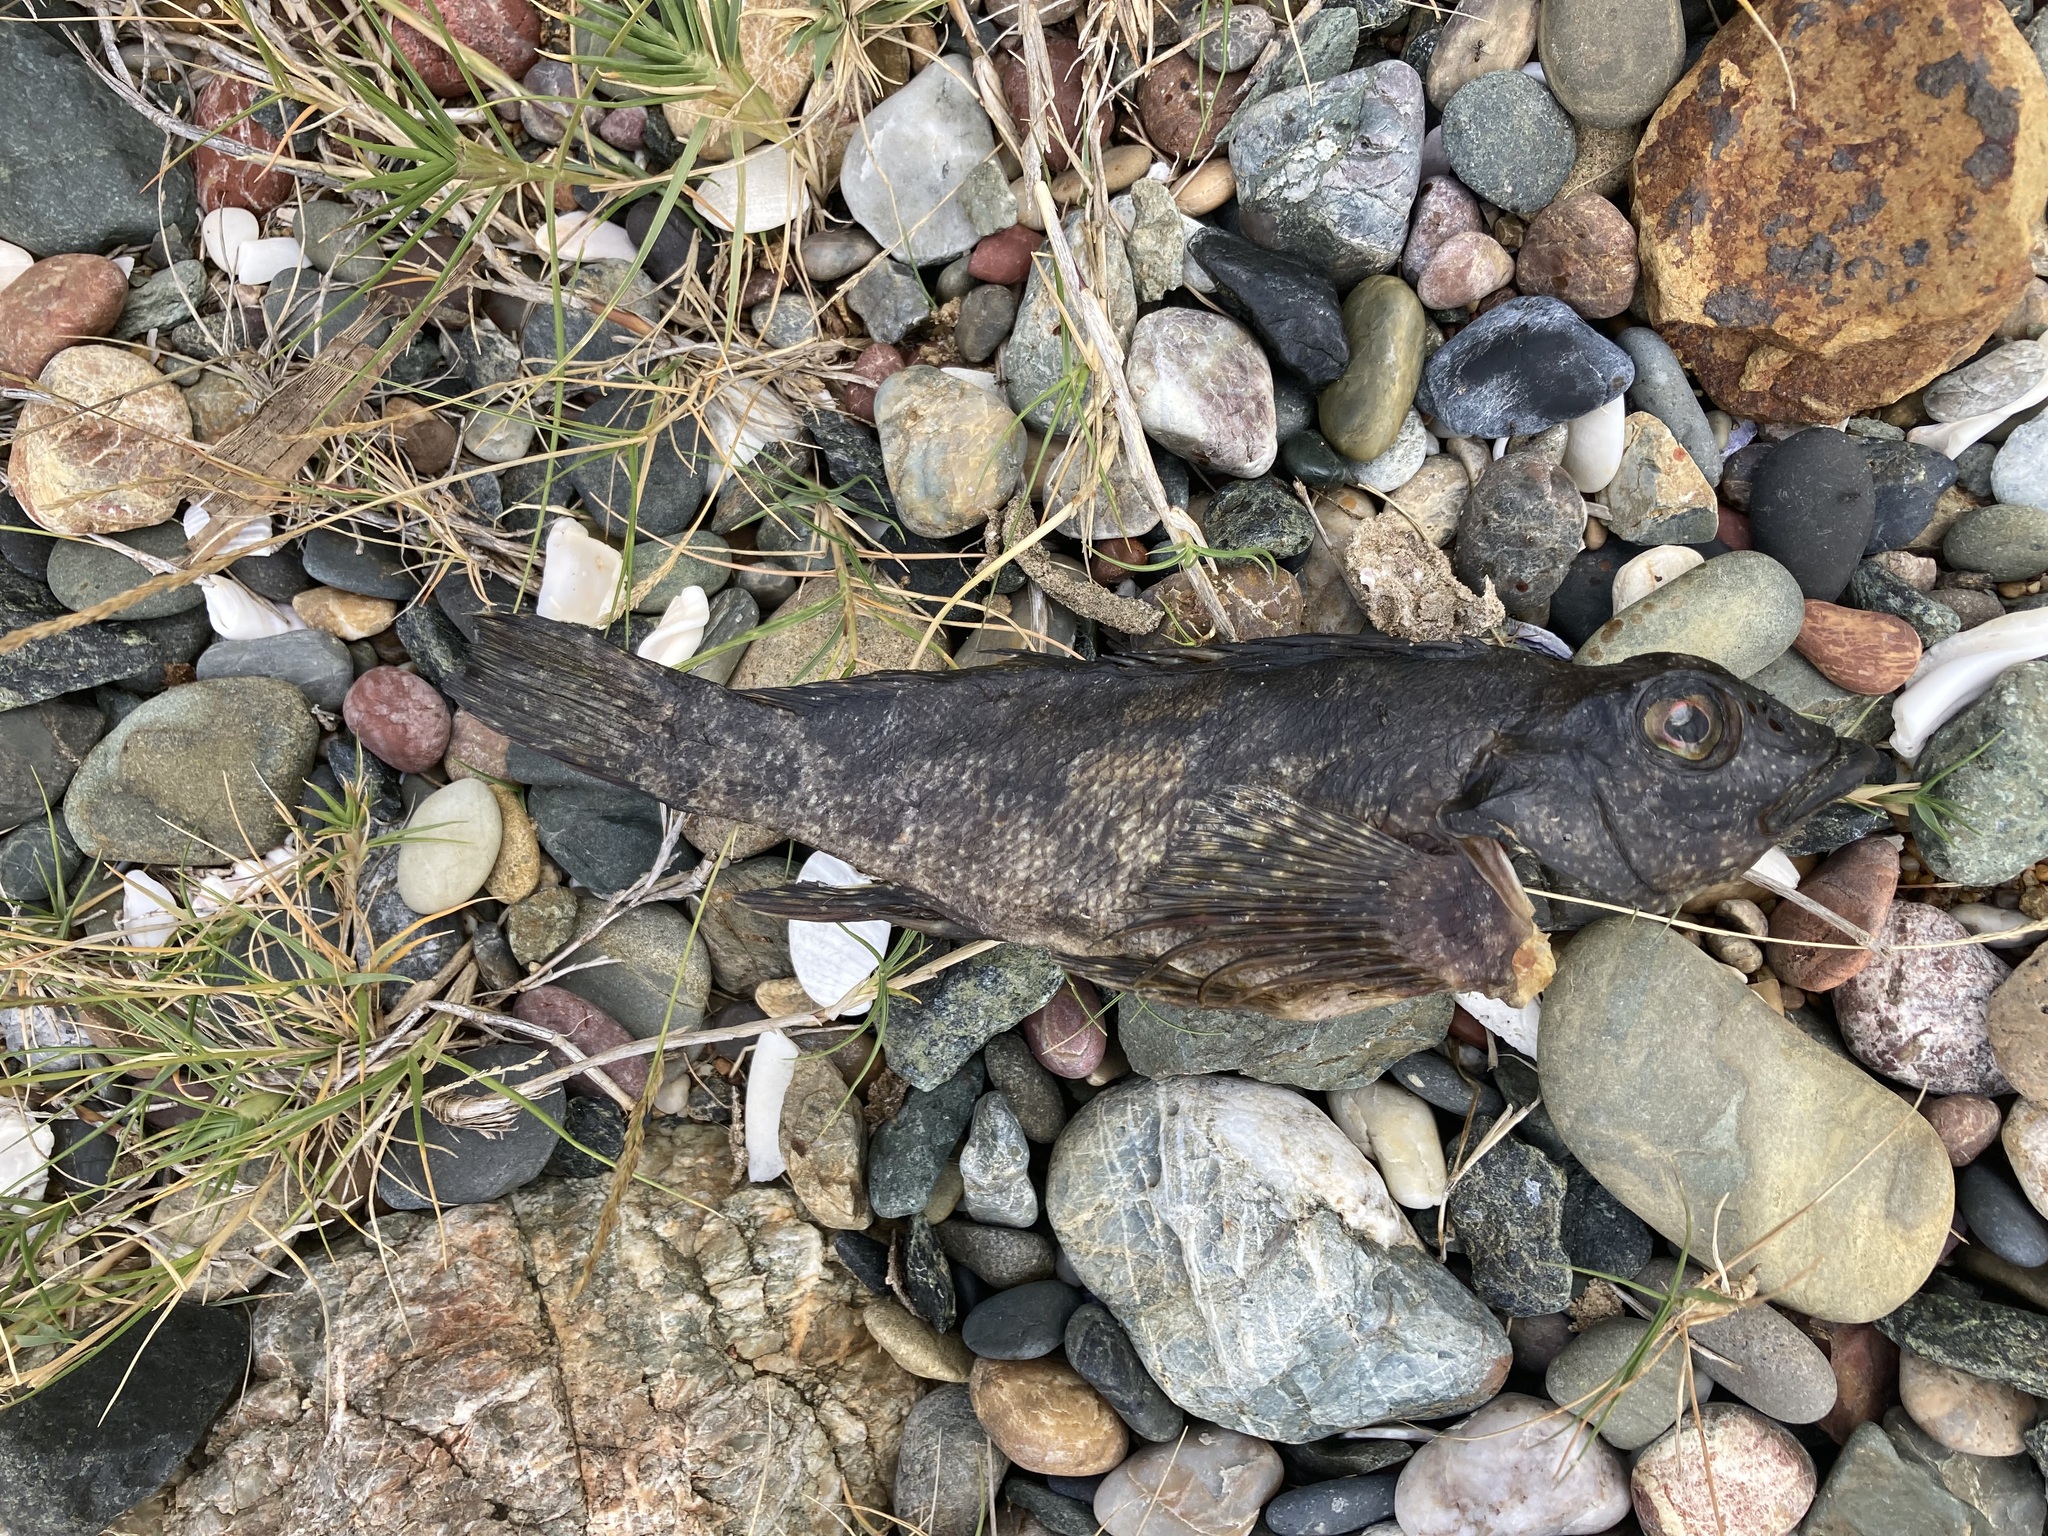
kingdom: Animalia
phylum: Chordata
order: Perciformes
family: Chironemidae
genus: Chironemus
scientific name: Chironemus marmoratus
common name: Kelpfish
